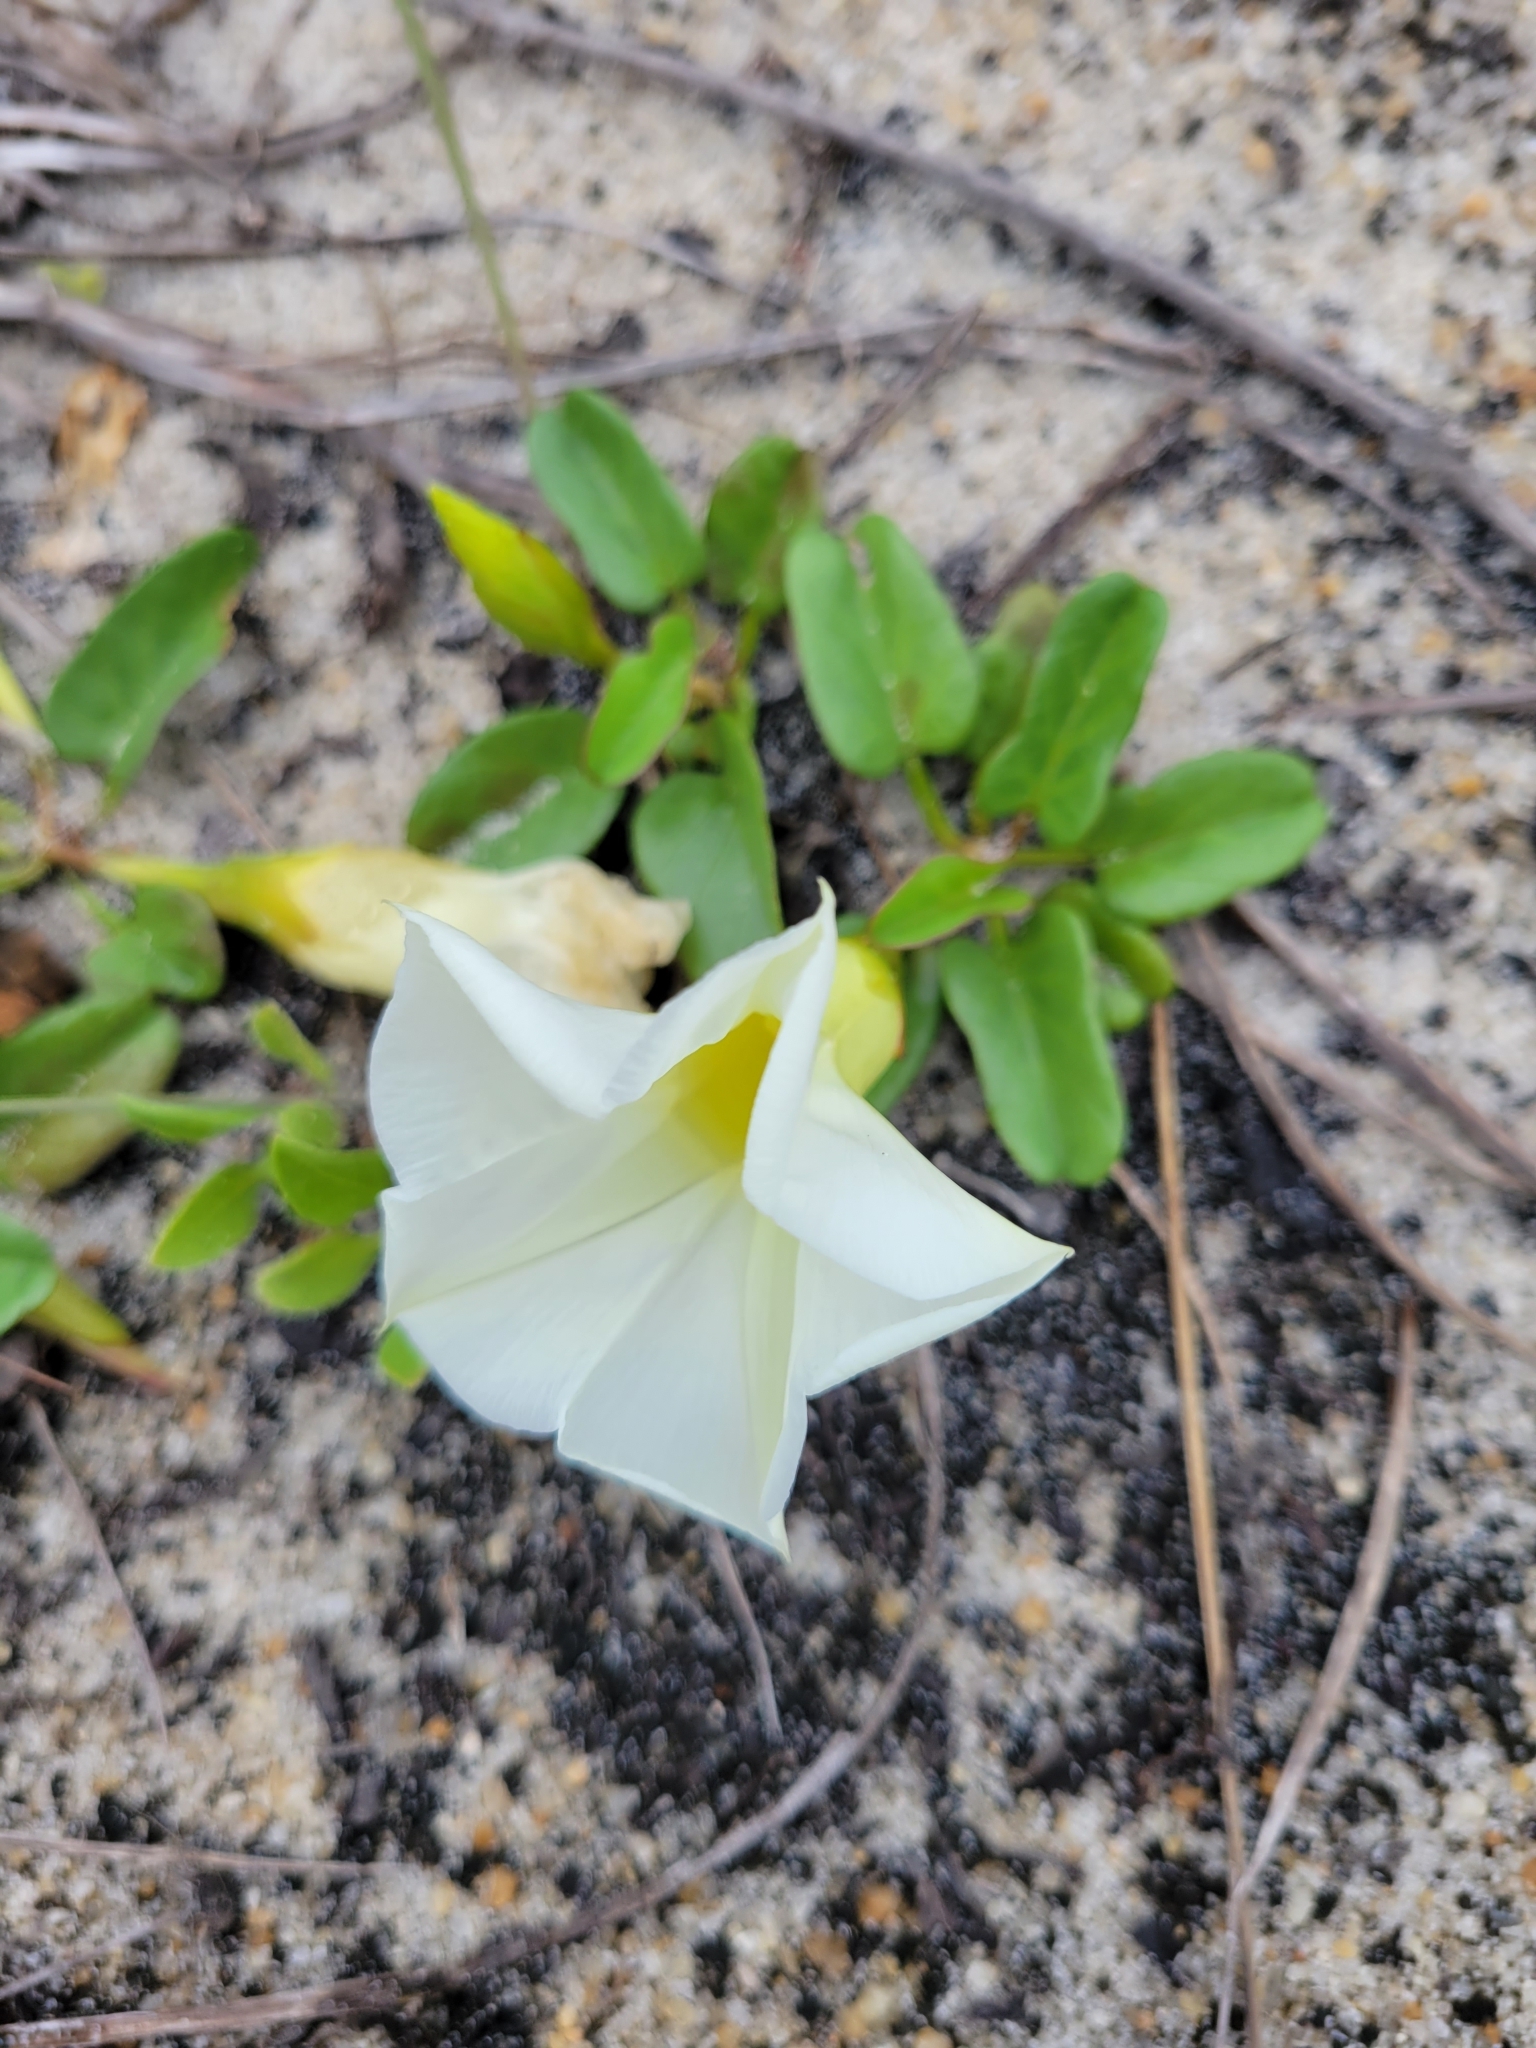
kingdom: Plantae
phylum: Tracheophyta
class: Magnoliopsida
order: Solanales
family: Convolvulaceae
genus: Ipomoea
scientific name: Ipomoea imperati
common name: Fiddle-leaf morning-glory
